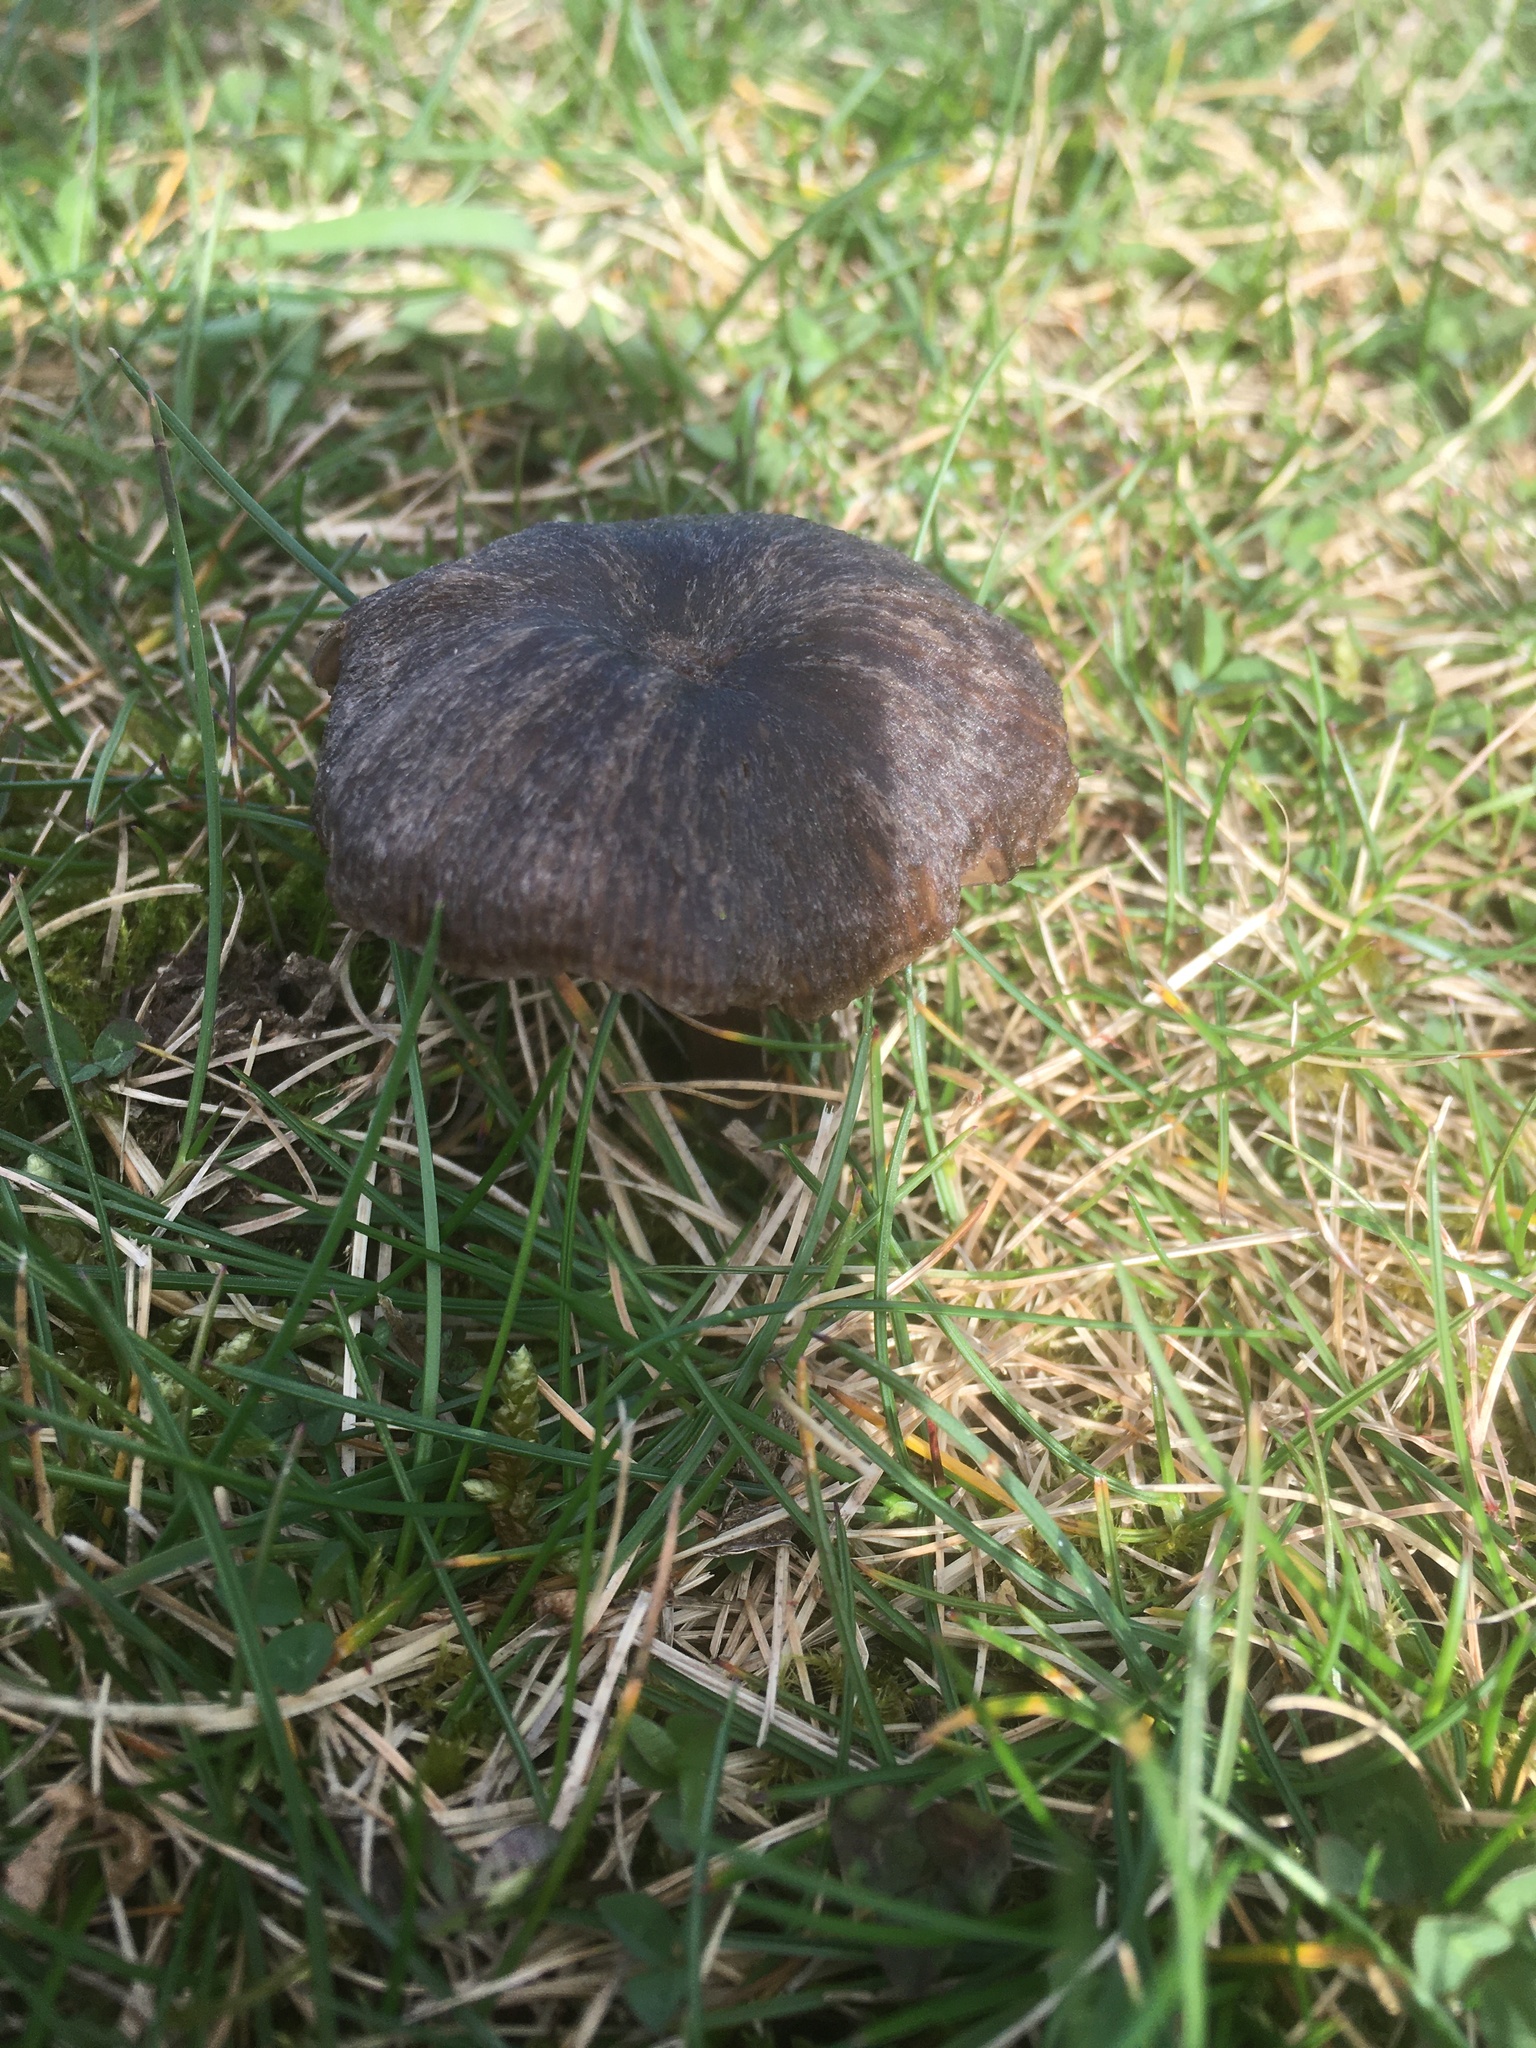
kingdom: Fungi
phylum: Basidiomycota
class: Agaricomycetes
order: Agaricales
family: Entolomataceae
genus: Entoloma
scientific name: Entoloma sericeum
